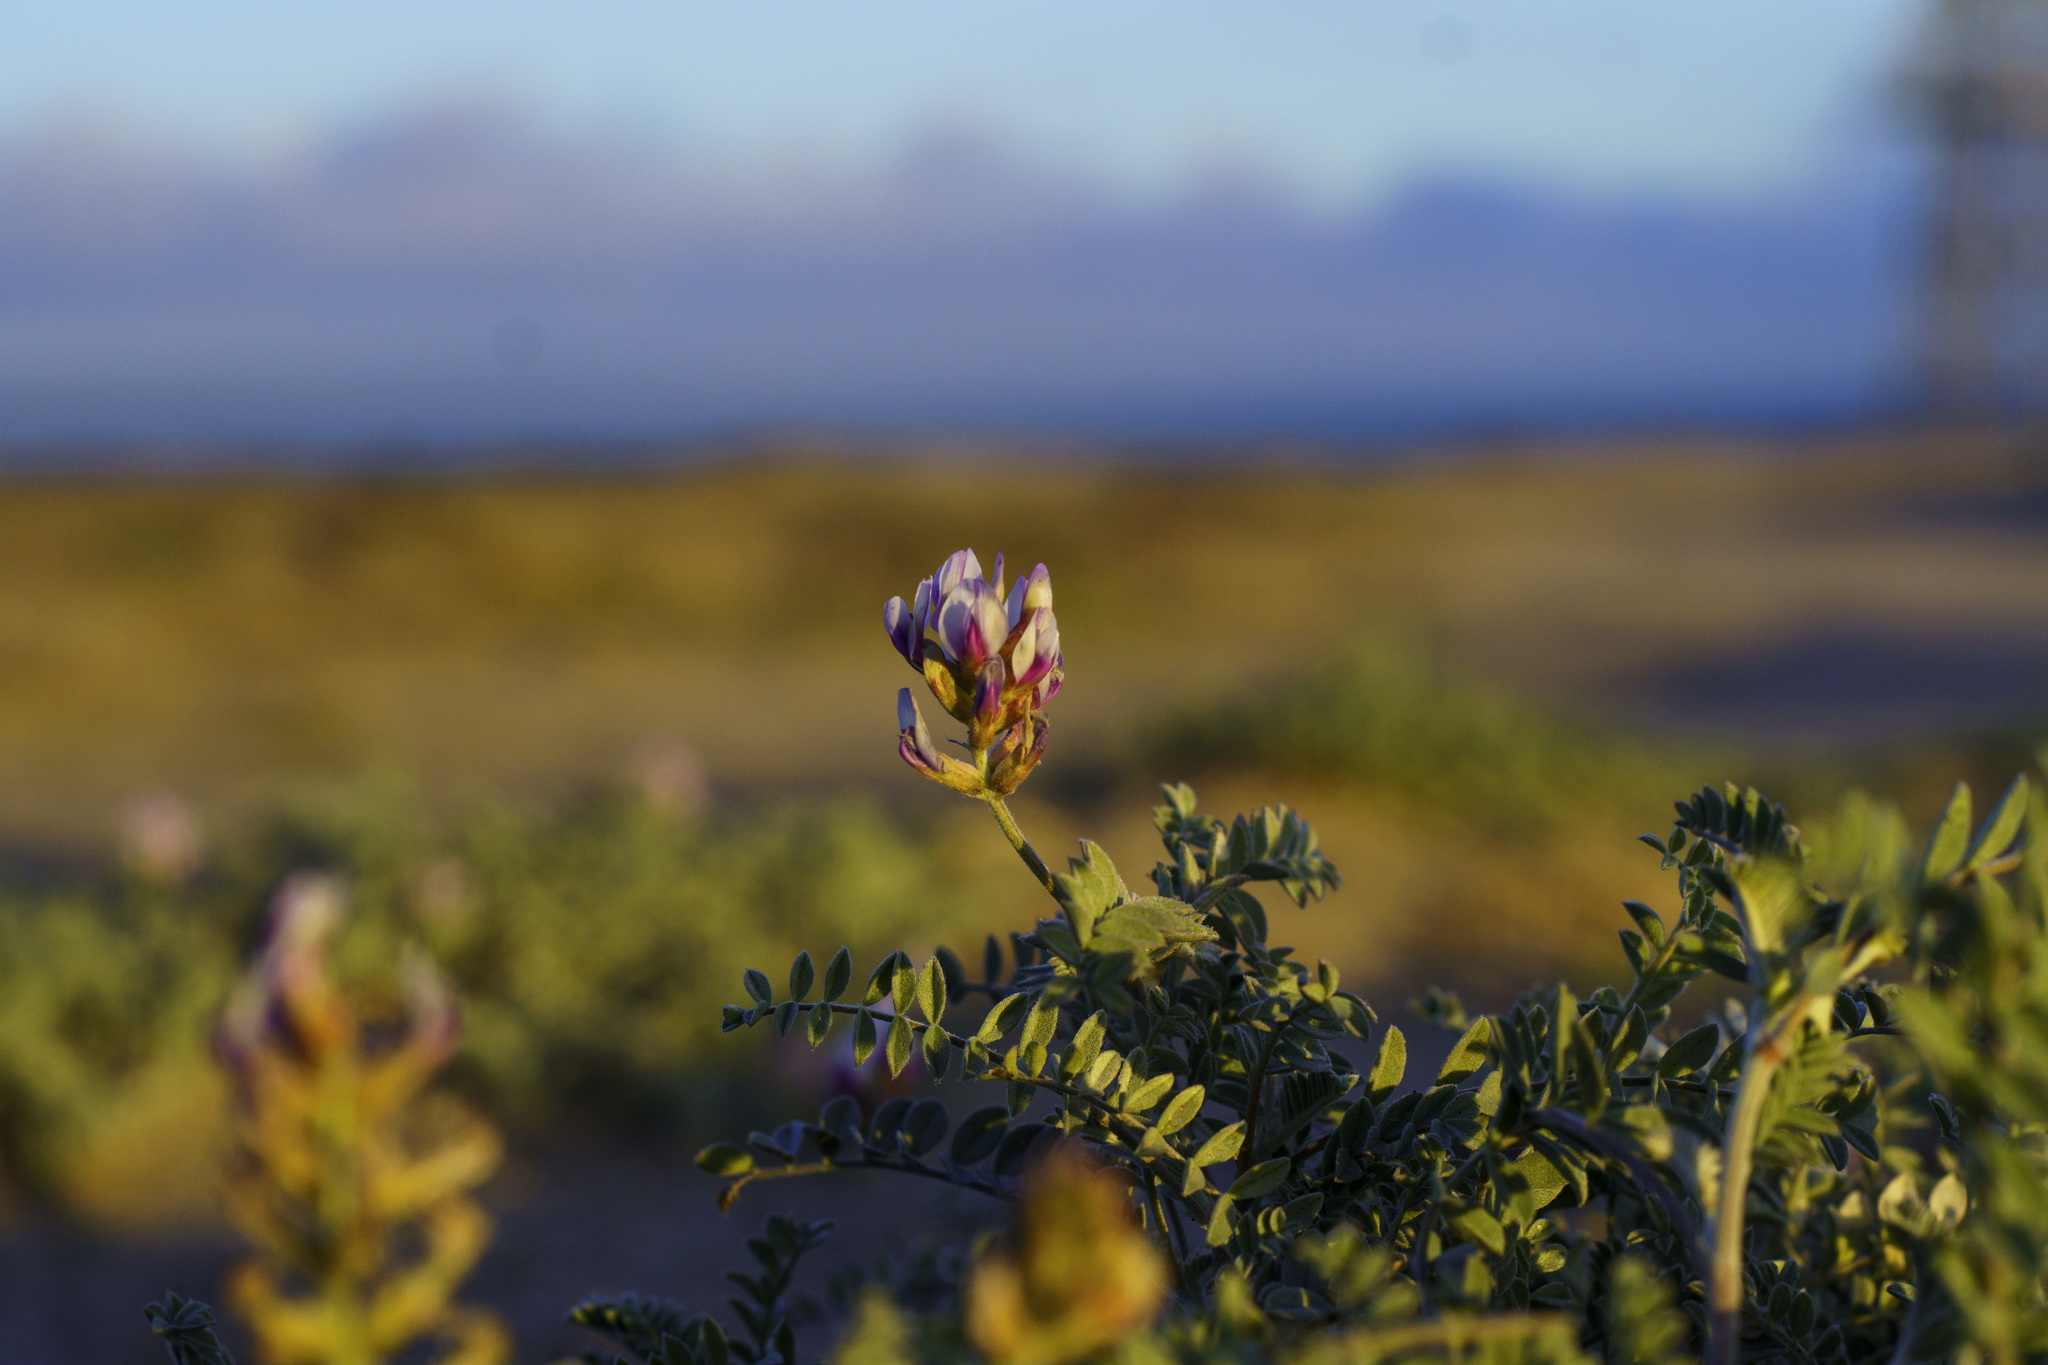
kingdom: Plantae
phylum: Tracheophyta
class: Magnoliopsida
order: Fabales
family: Fabaceae
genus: Astragalus
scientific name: Astragalus harbisonii
